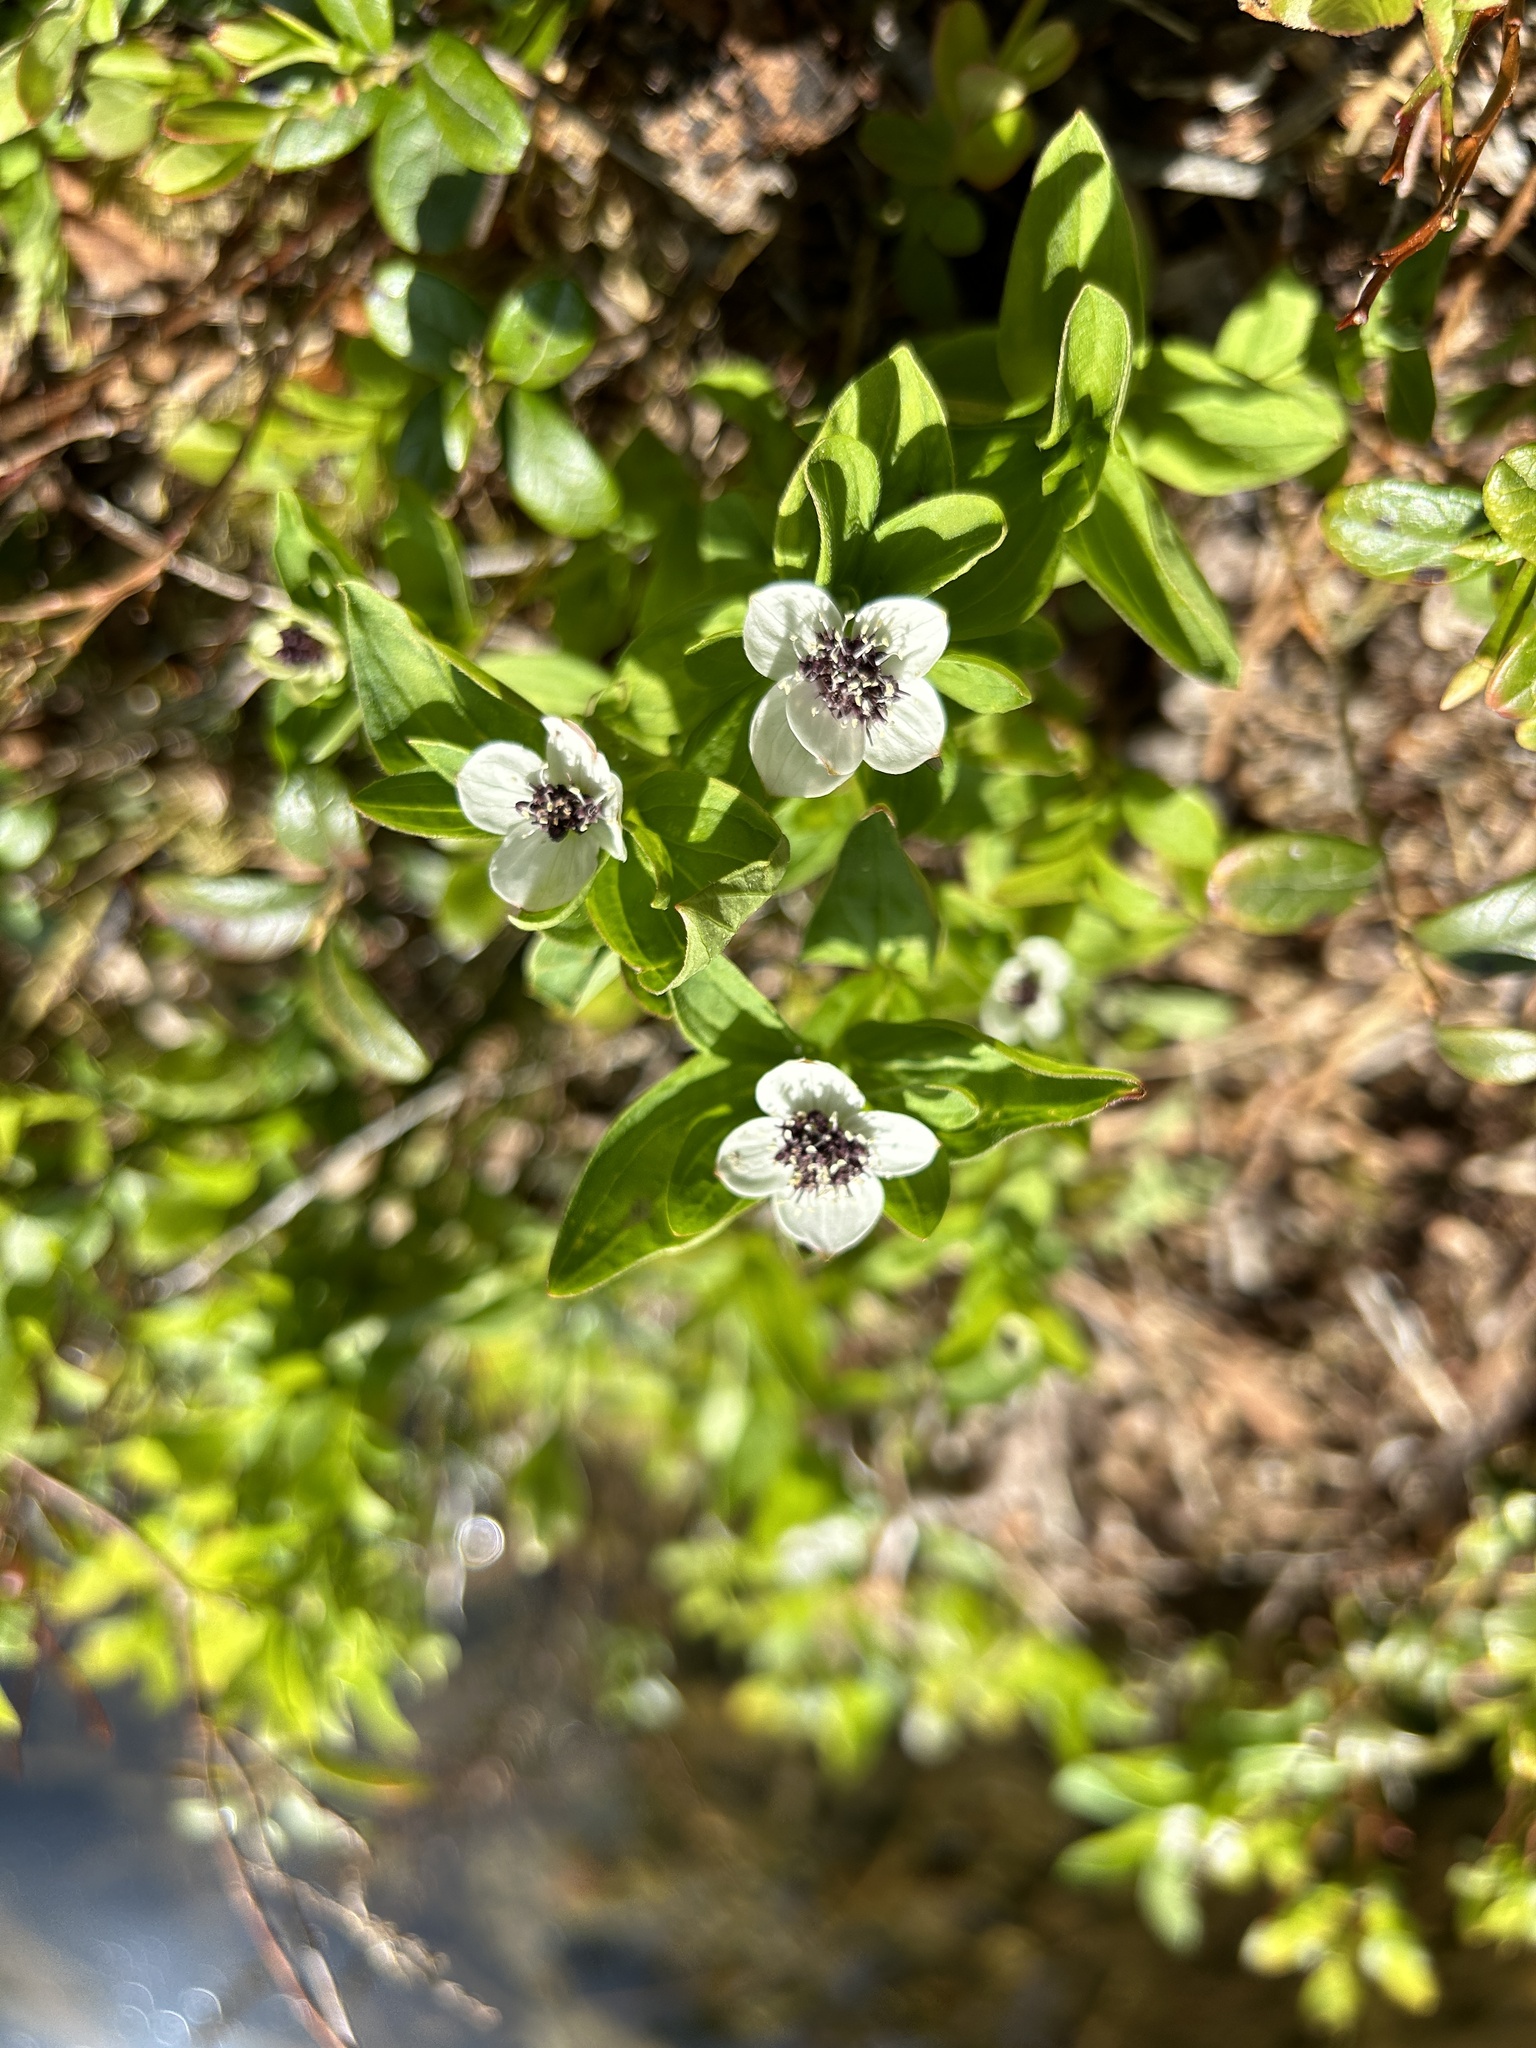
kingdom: Plantae
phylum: Tracheophyta
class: Magnoliopsida
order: Cornales
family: Cornaceae
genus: Cornus
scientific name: Cornus suecica
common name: Dwarf cornel
